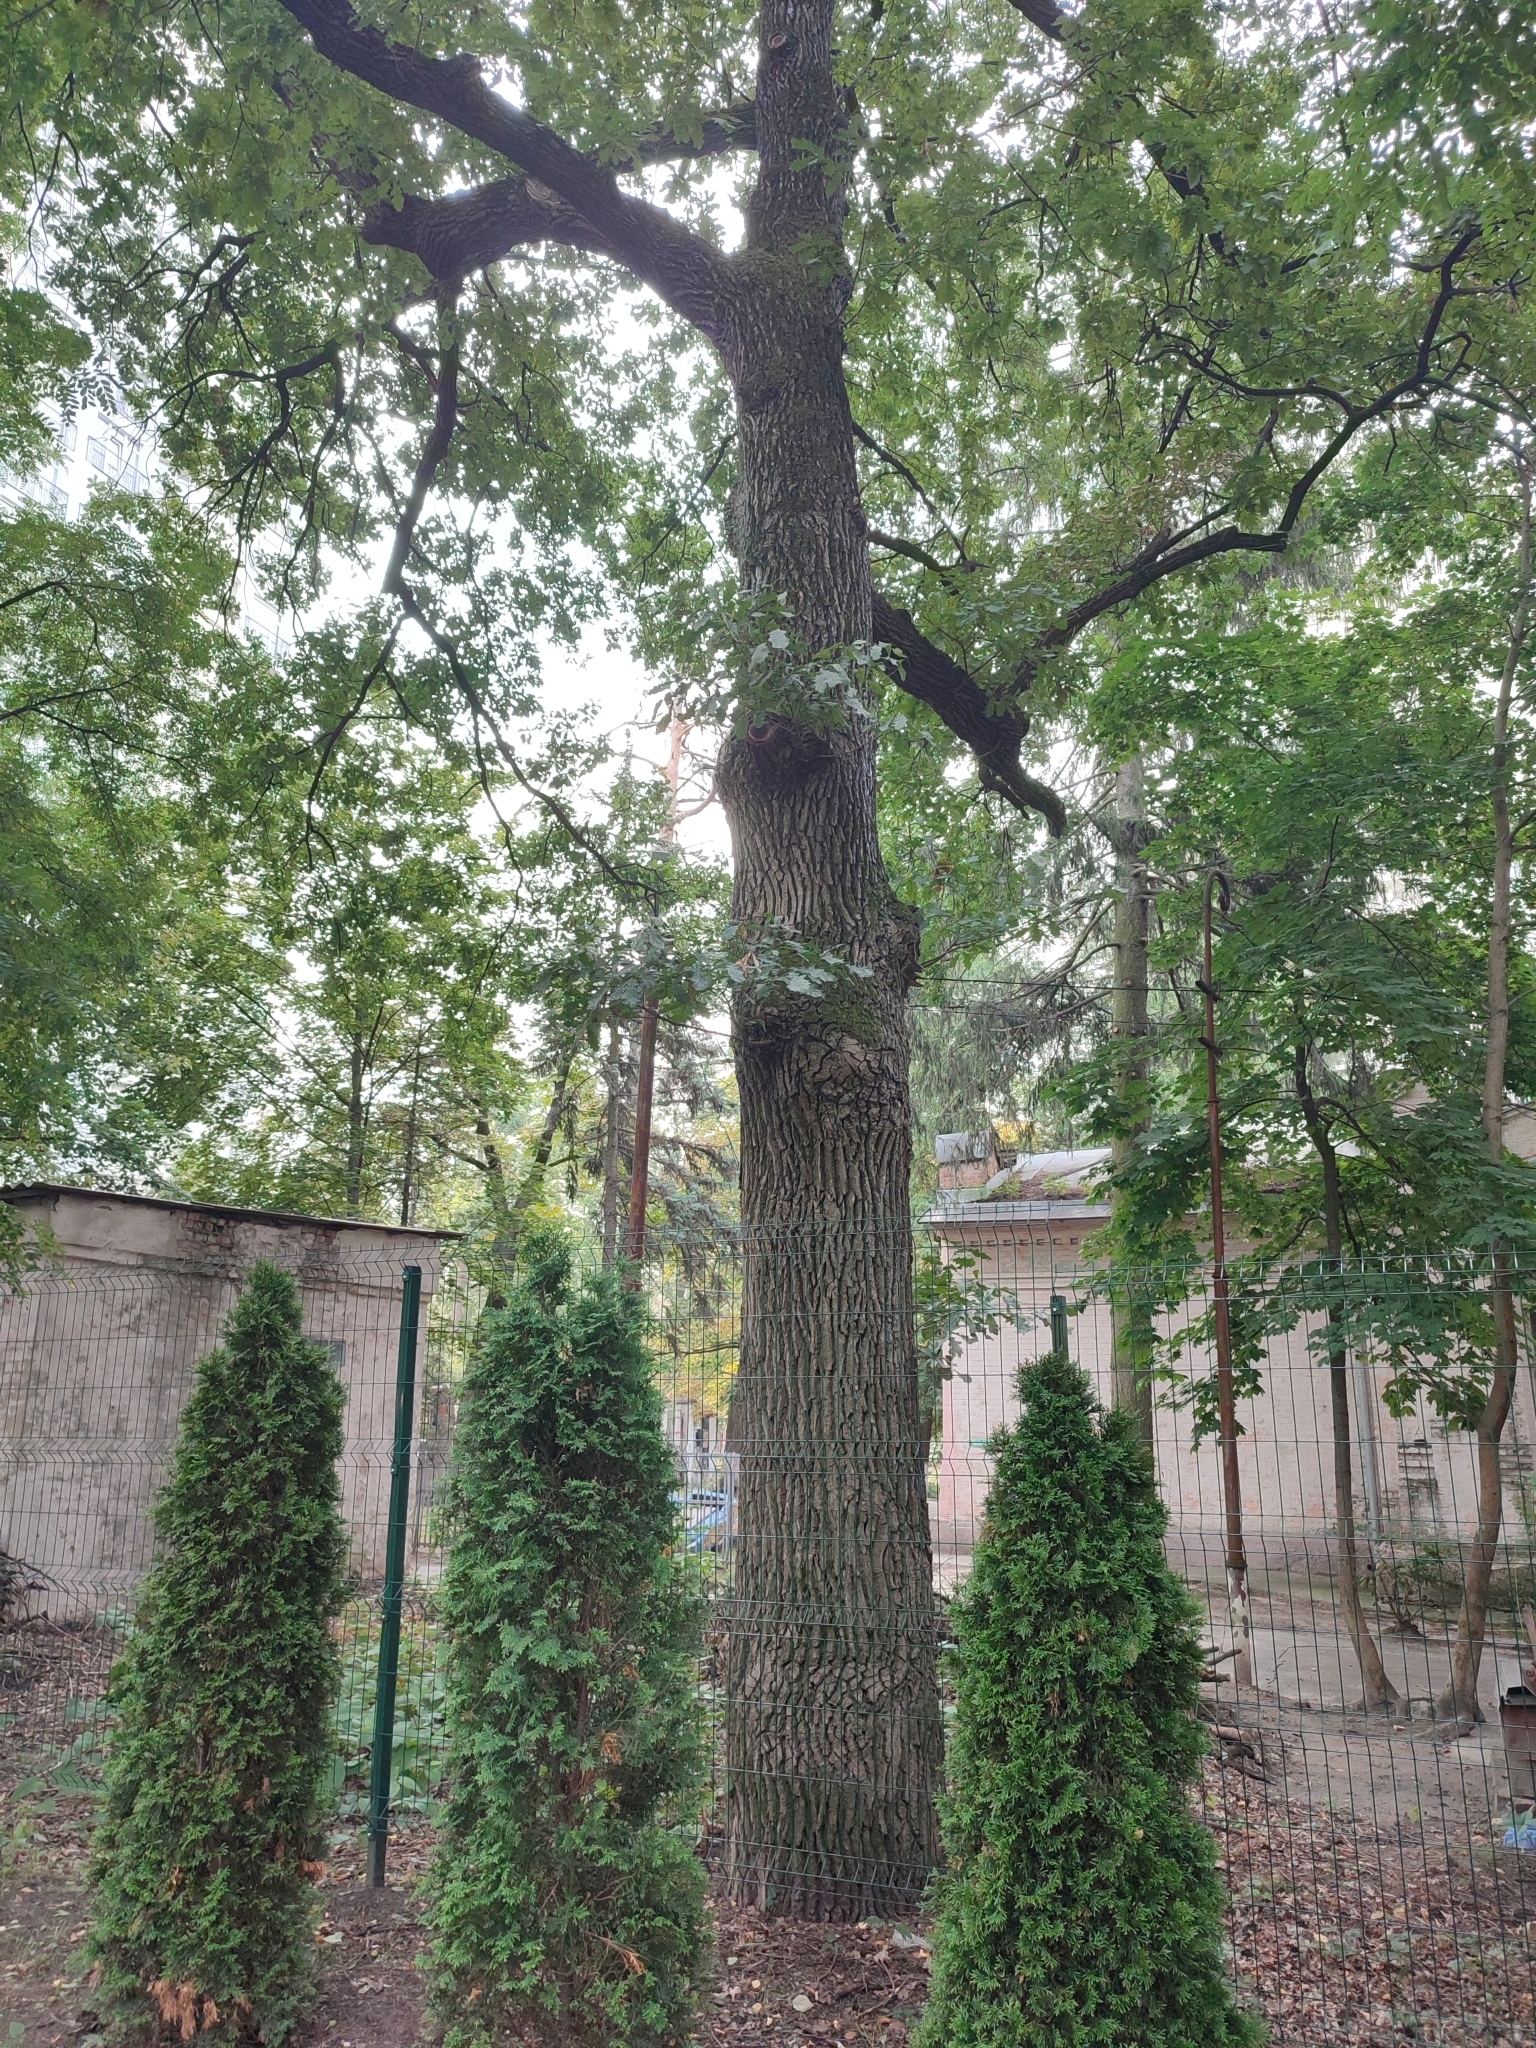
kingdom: Plantae
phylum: Tracheophyta
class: Magnoliopsida
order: Fagales
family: Fagaceae
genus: Quercus
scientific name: Quercus robur
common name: Pedunculate oak
